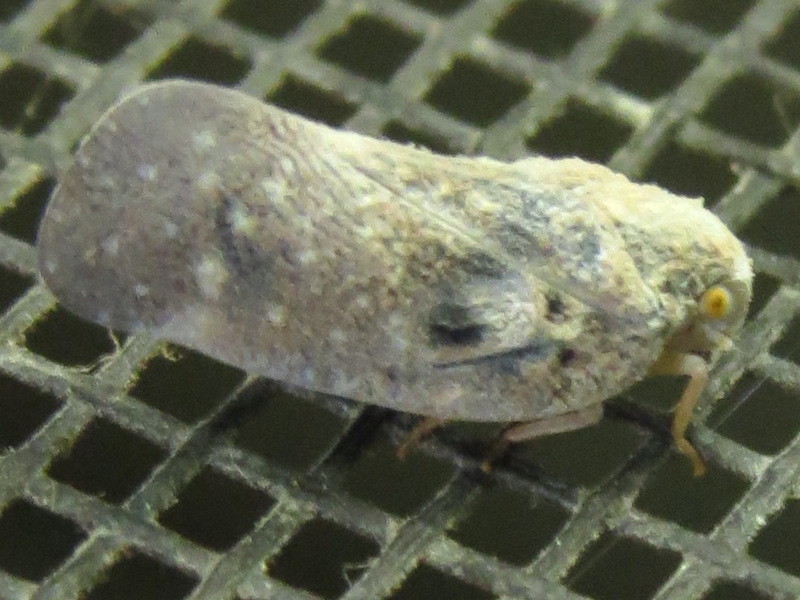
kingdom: Animalia
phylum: Arthropoda
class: Insecta
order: Hemiptera
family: Flatidae
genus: Metcalfa
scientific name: Metcalfa pruinosa
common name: Citrus flatid planthopper
